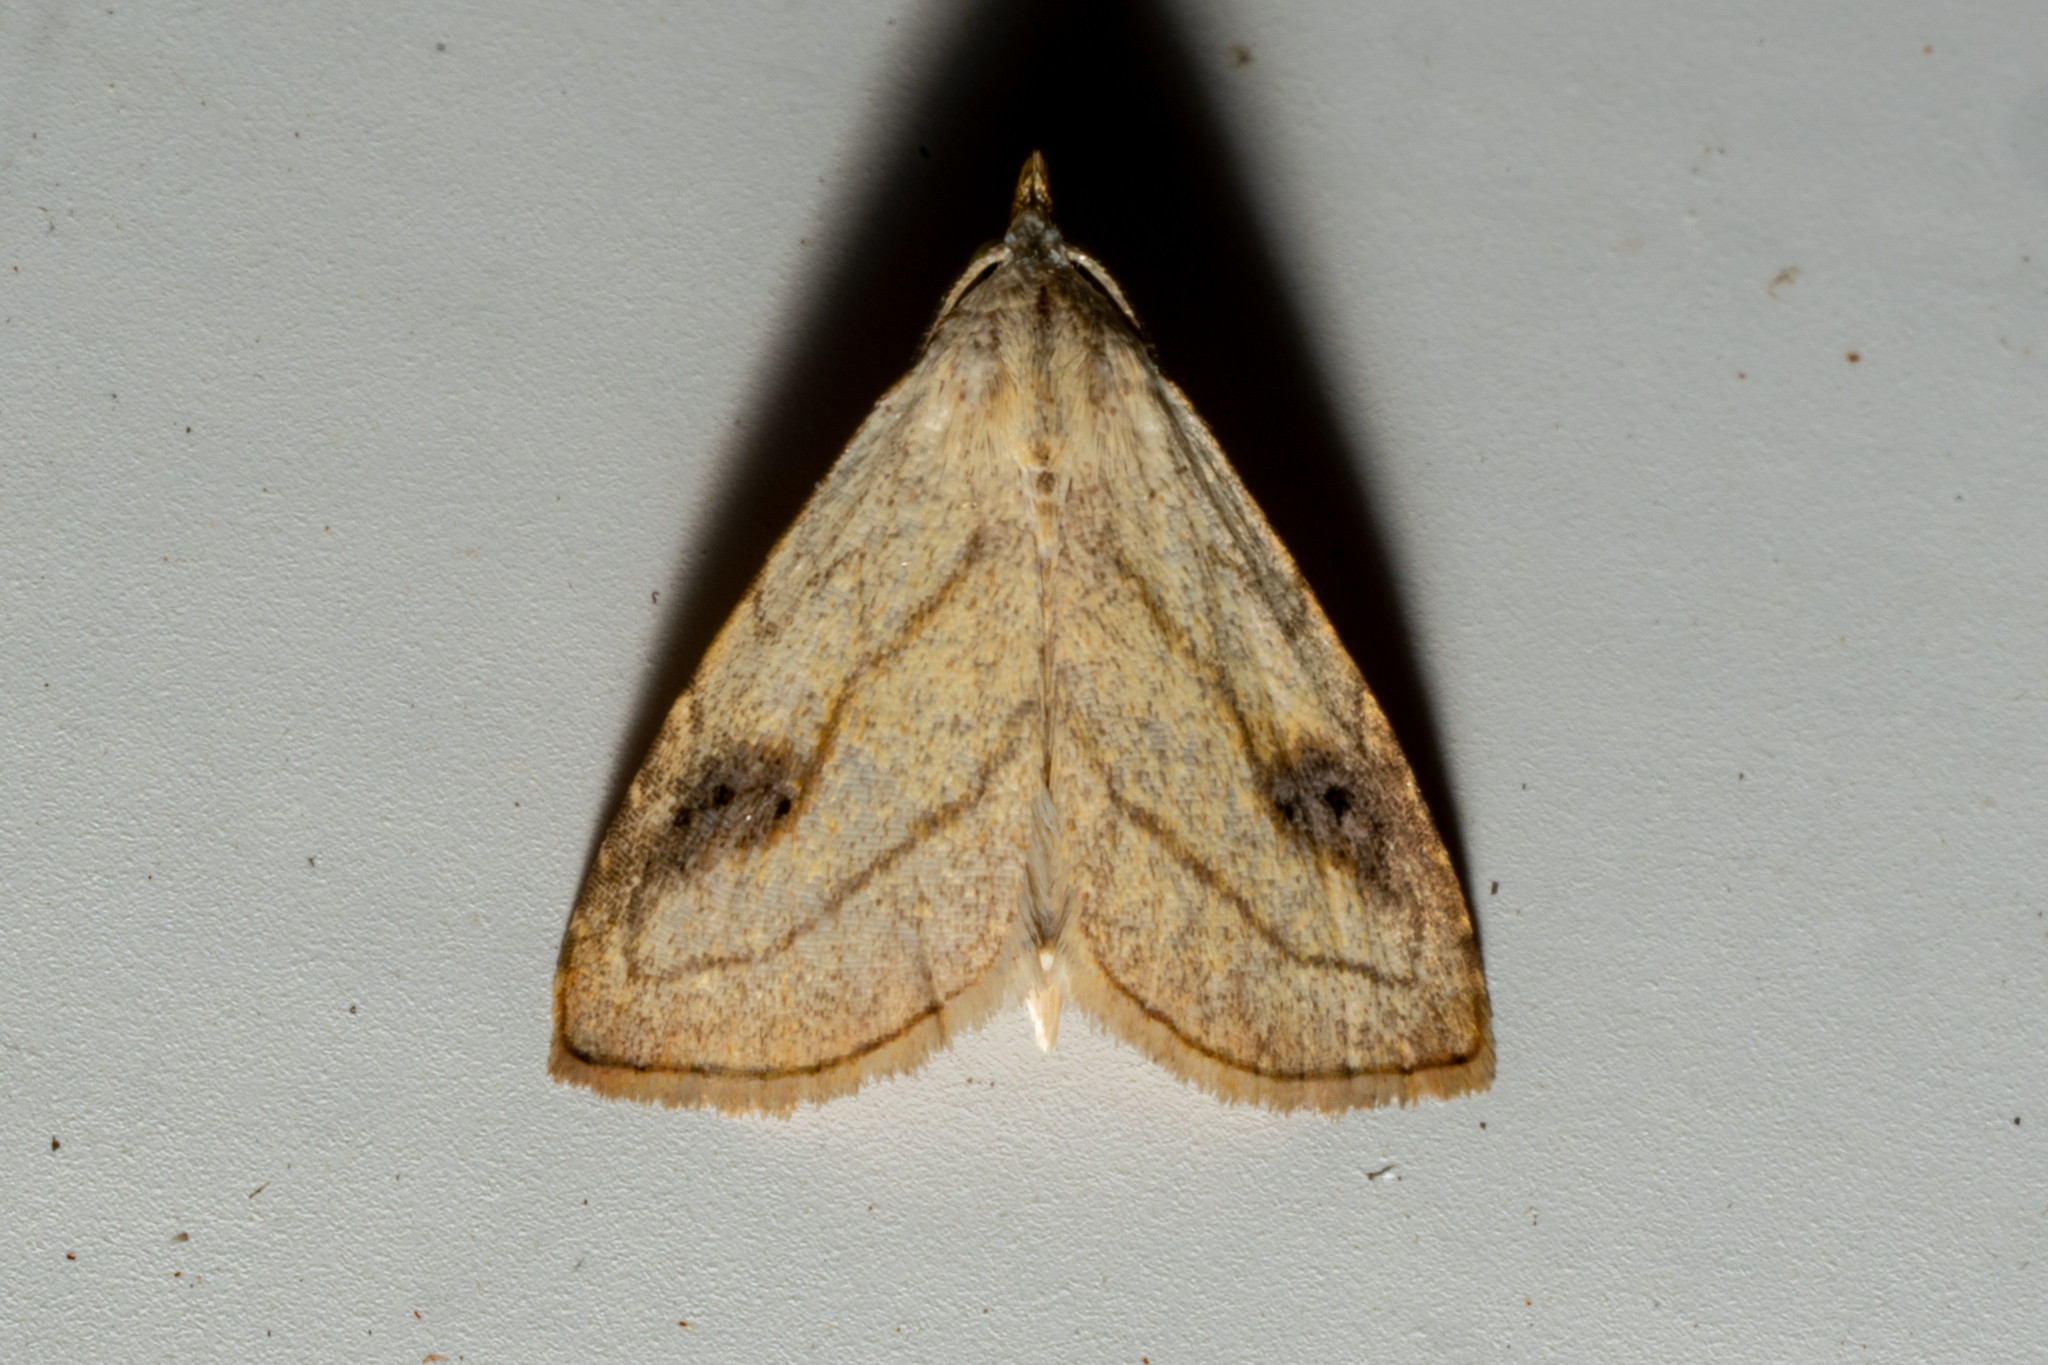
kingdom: Animalia
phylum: Arthropoda
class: Insecta
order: Lepidoptera
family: Erebidae
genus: Rivula
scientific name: Rivula propinqualis
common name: Spotted grass moth
